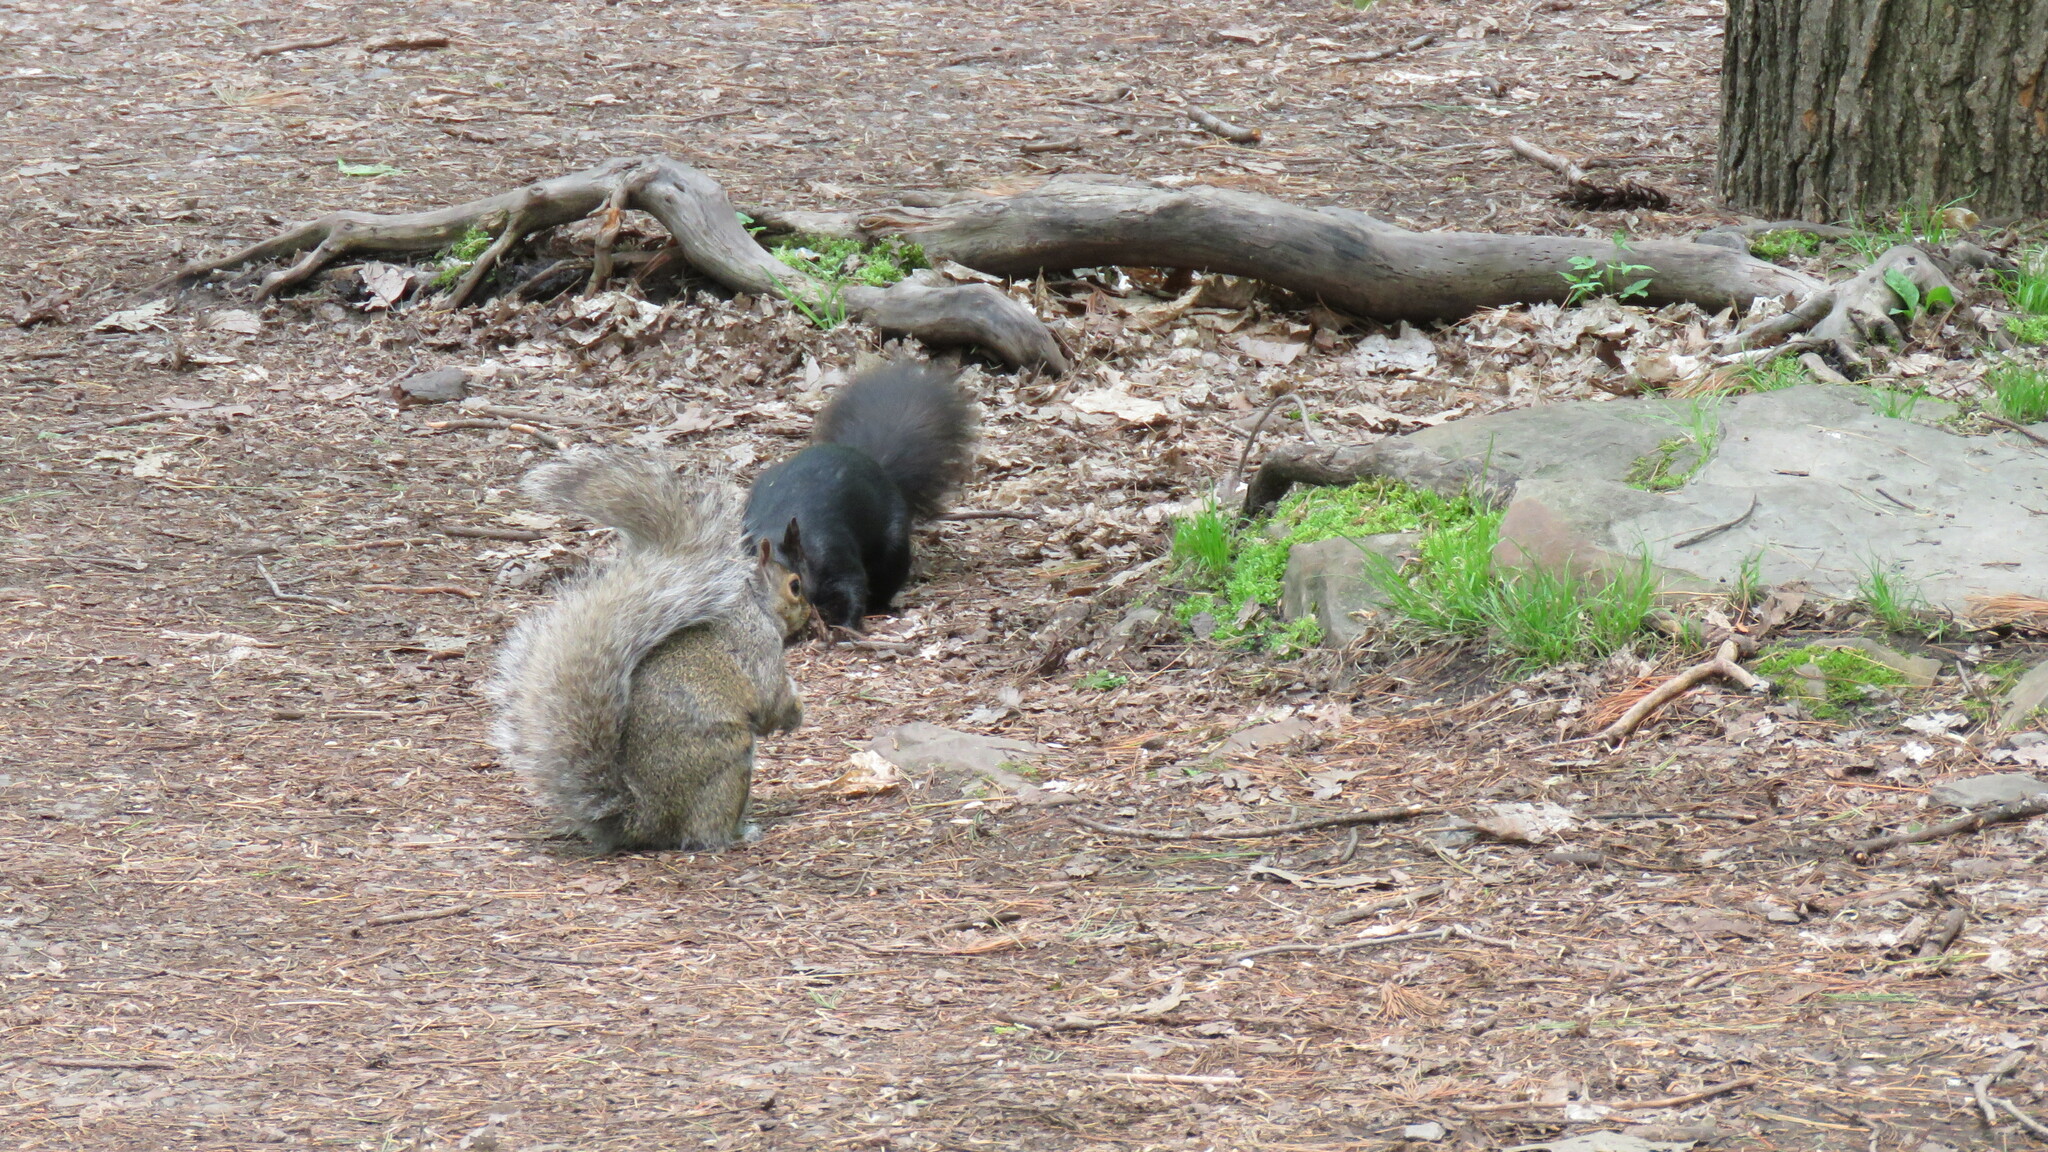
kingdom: Animalia
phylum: Chordata
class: Mammalia
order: Rodentia
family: Sciuridae
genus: Sciurus
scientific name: Sciurus carolinensis
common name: Eastern gray squirrel
